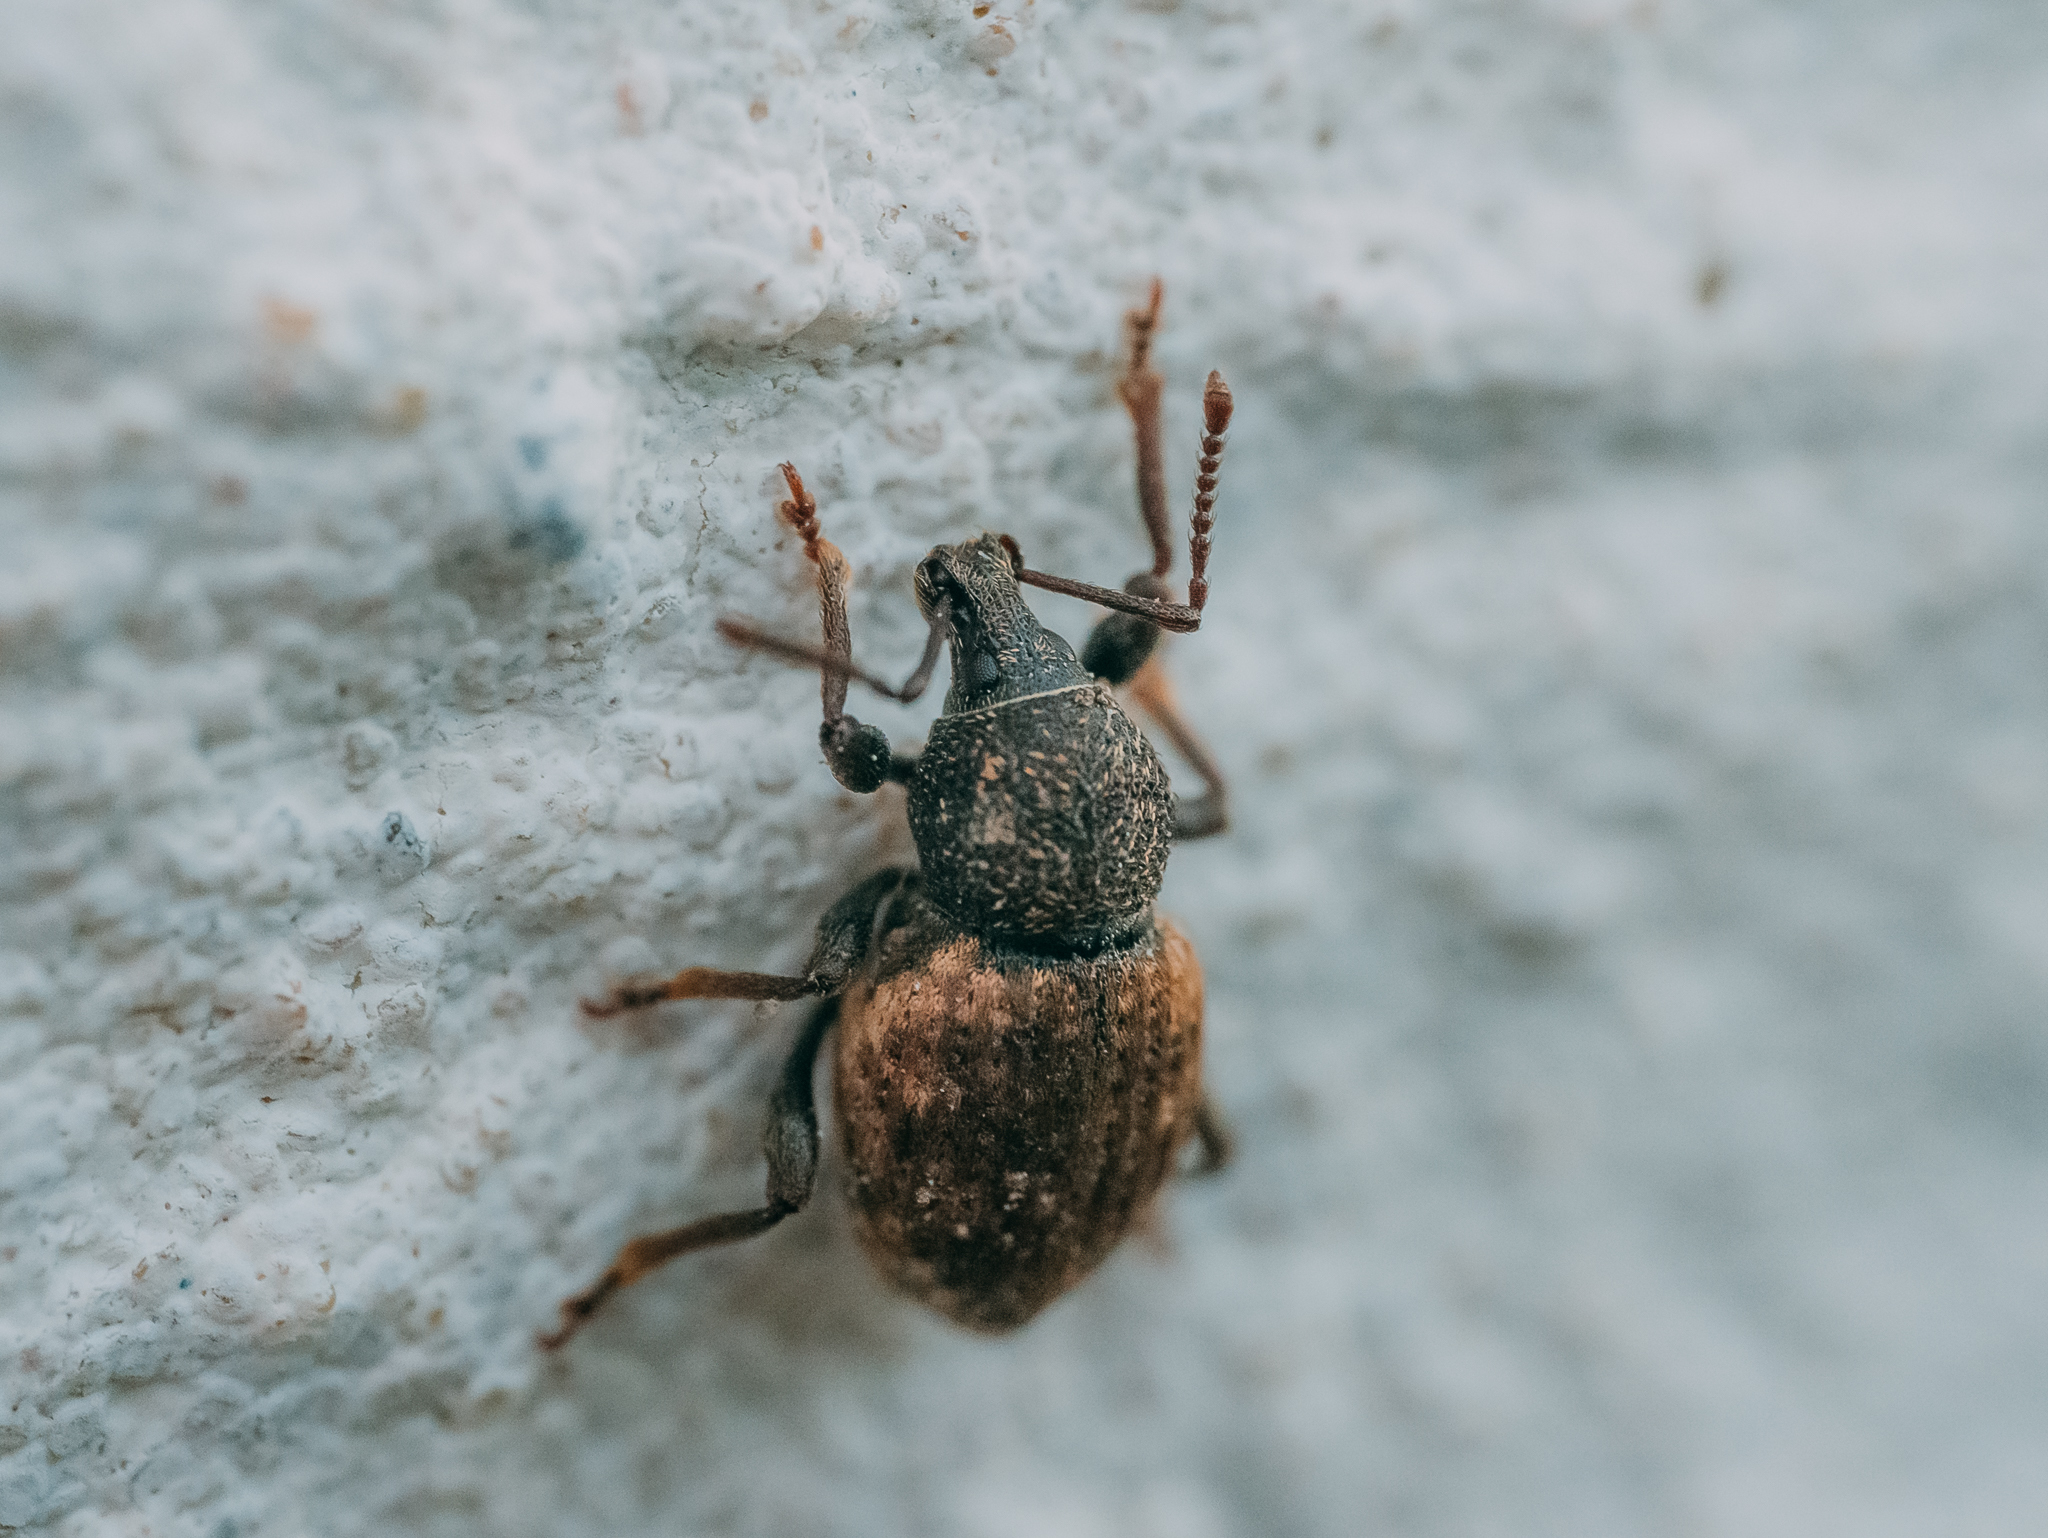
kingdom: Animalia
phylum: Arthropoda
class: Insecta
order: Coleoptera
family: Curculionidae
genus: Otiorhynchus
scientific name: Otiorhynchus raucus
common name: Weevil
